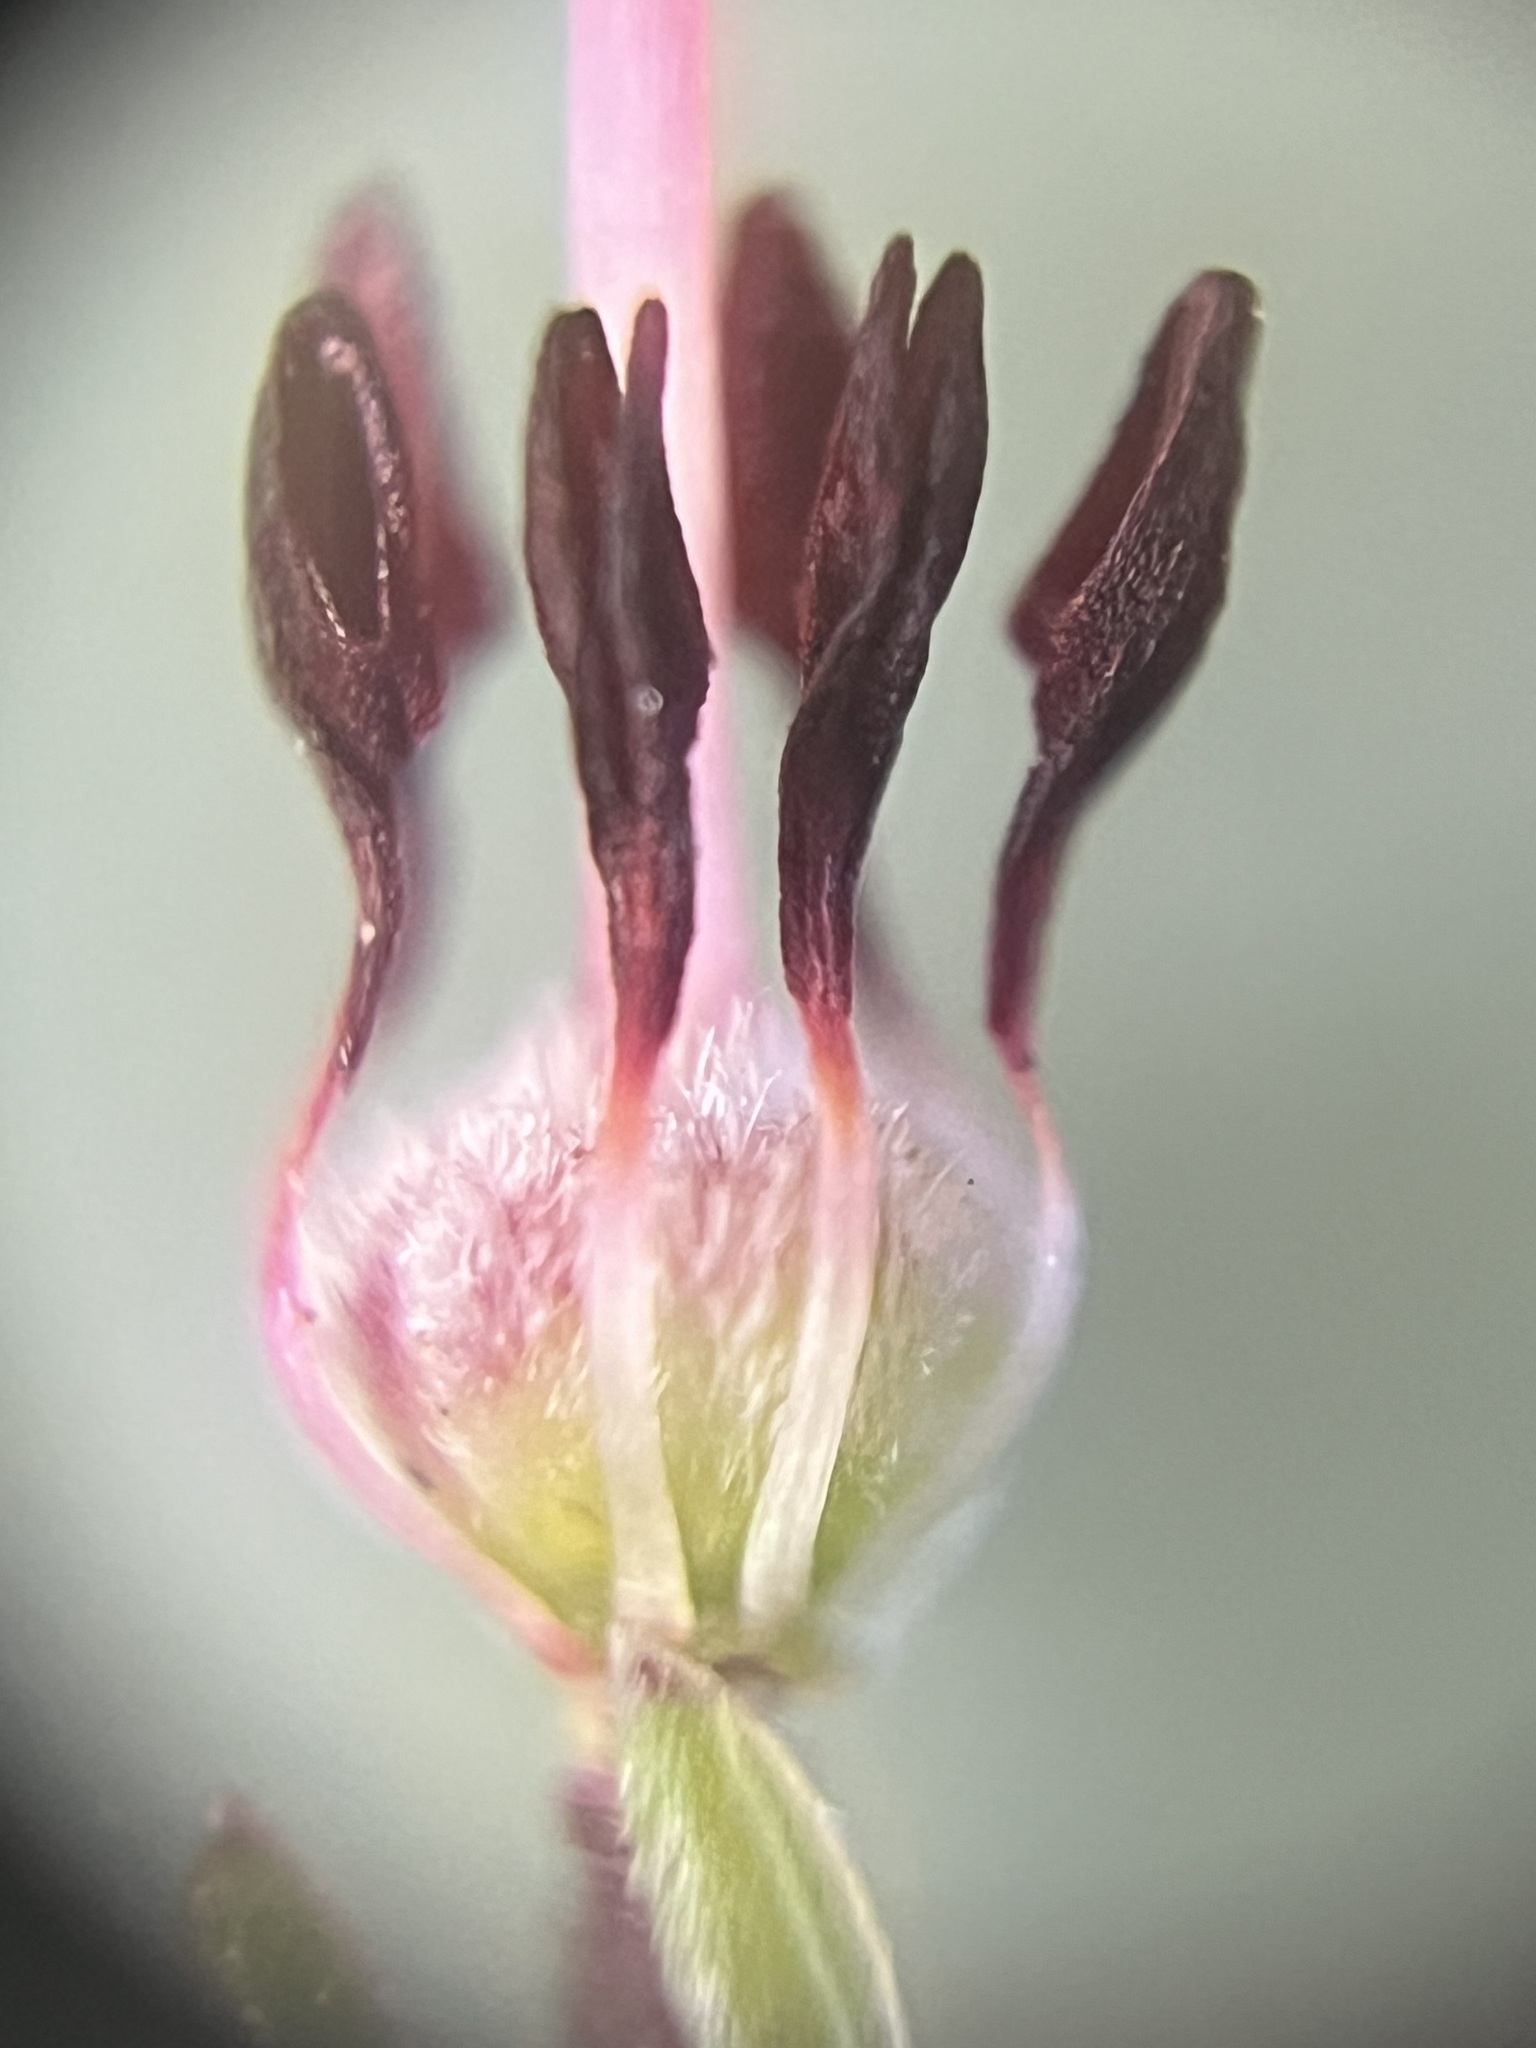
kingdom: Plantae
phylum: Tracheophyta
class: Magnoliopsida
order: Ericales
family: Ericaceae
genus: Erica
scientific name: Erica axilliflora
